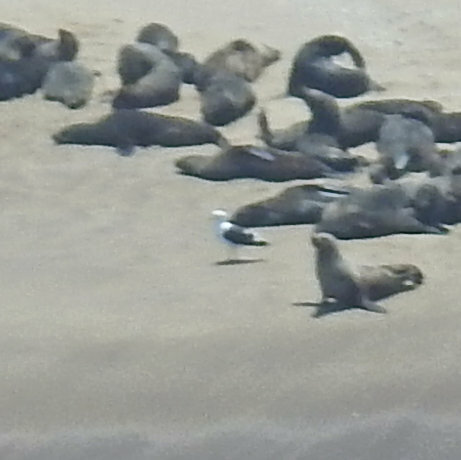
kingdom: Animalia
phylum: Chordata
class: Aves
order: Charadriiformes
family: Laridae
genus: Larus
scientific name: Larus dominicanus
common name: Kelp gull
